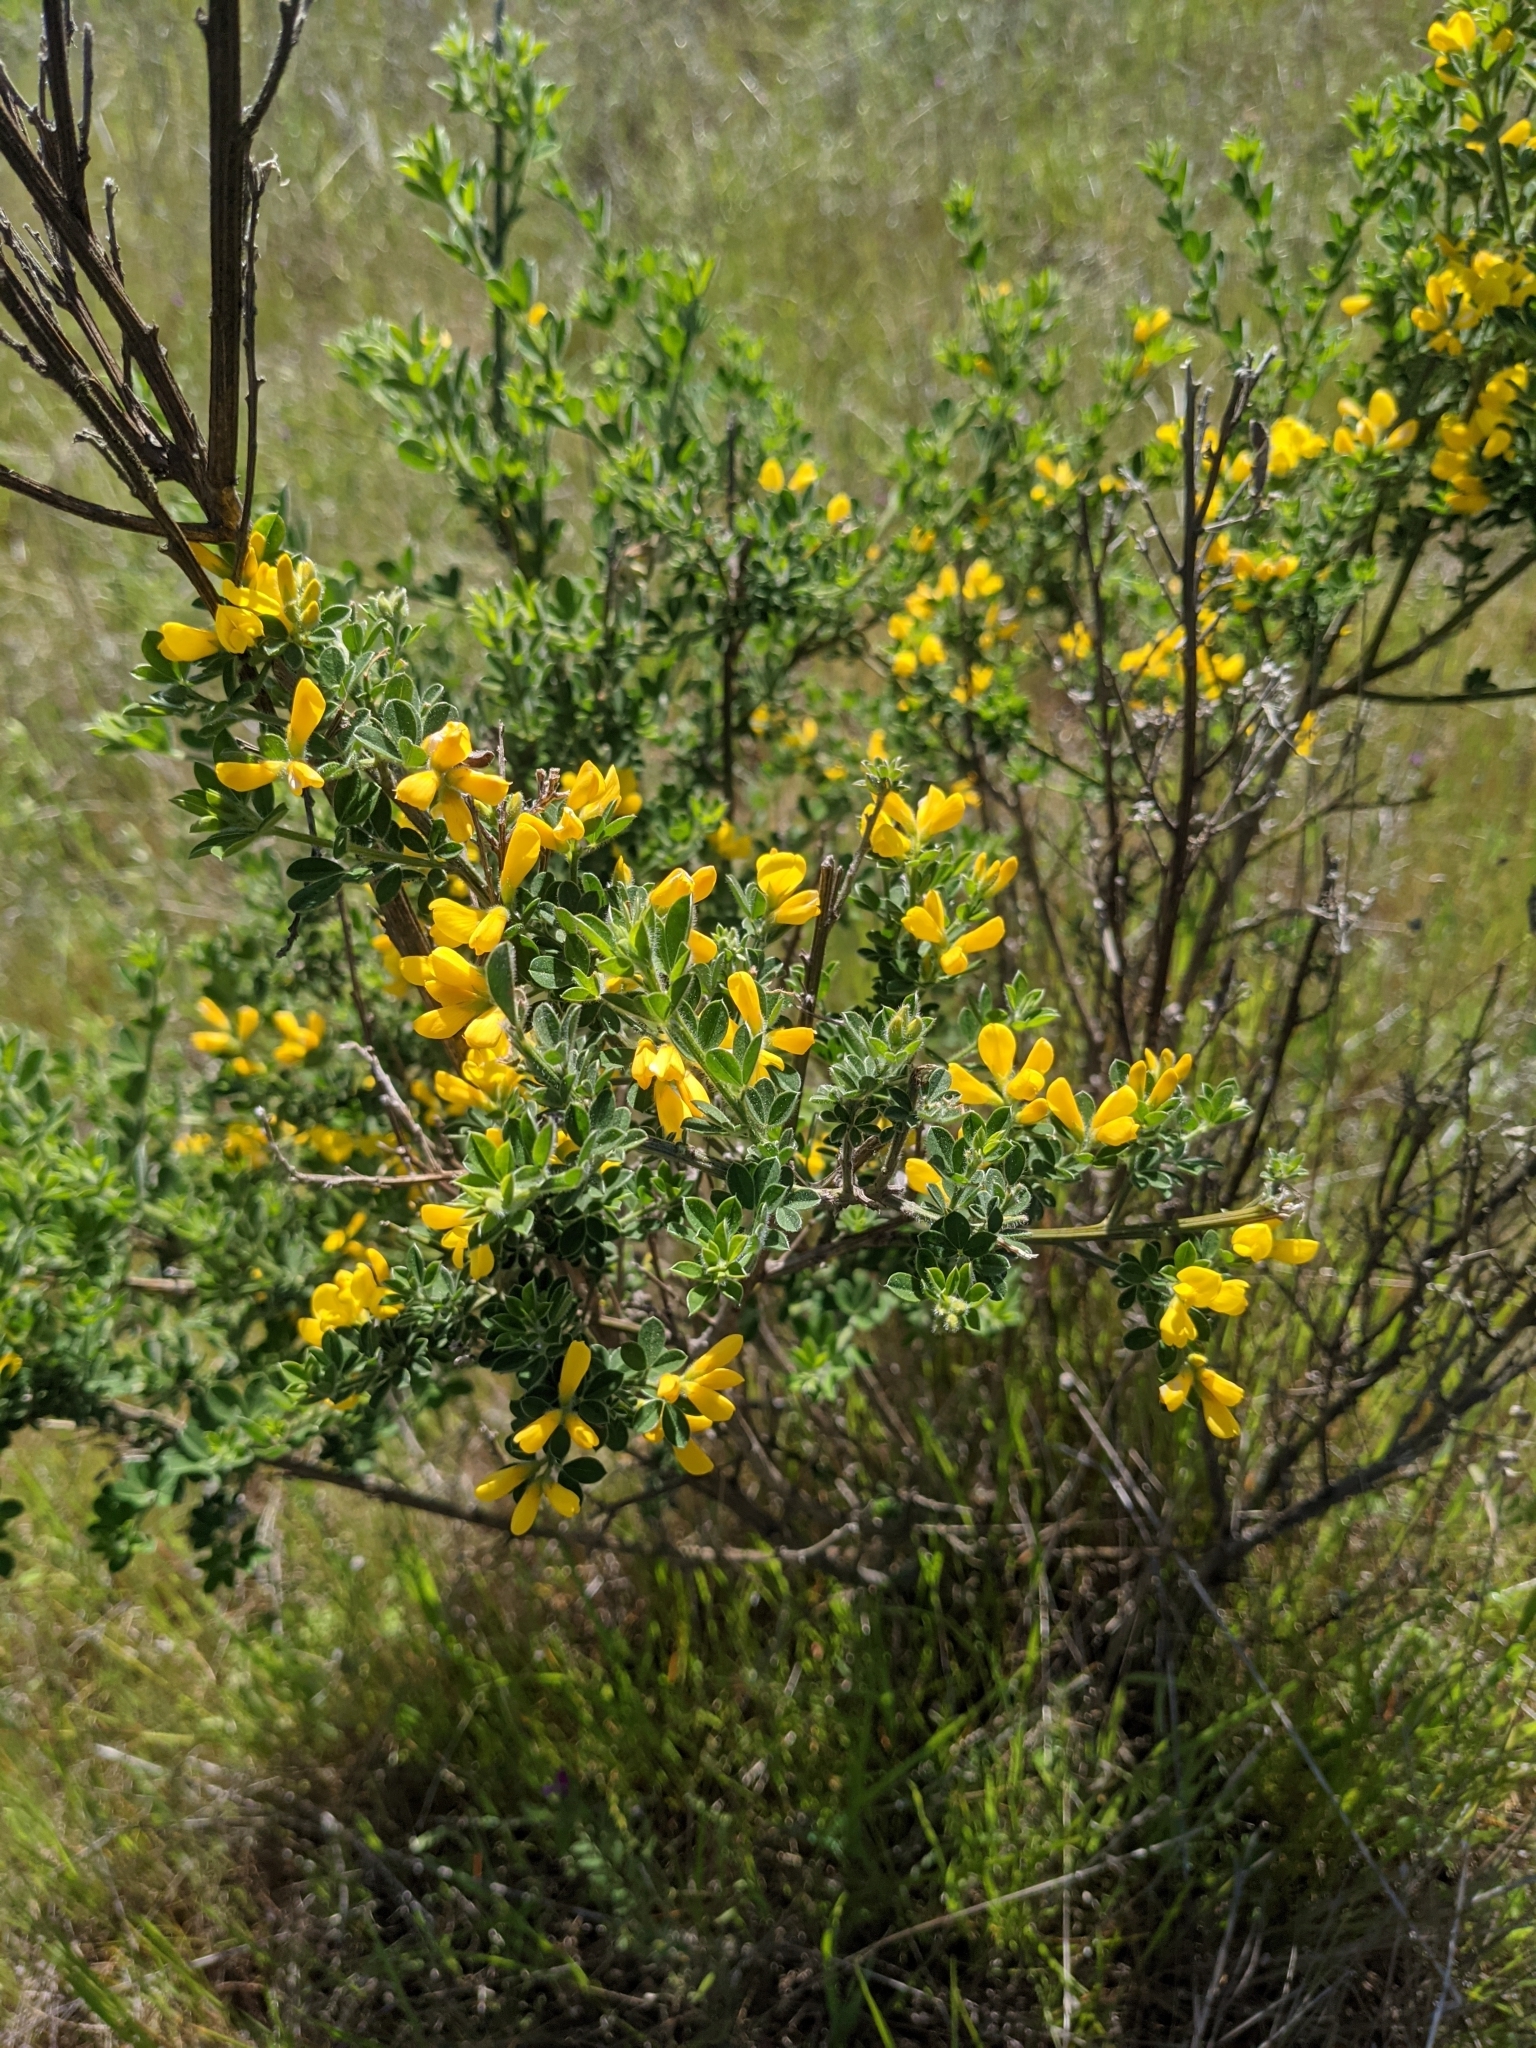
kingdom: Plantae
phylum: Tracheophyta
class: Magnoliopsida
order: Fabales
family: Fabaceae
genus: Genista
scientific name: Genista monspessulana
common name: Montpellier broom
